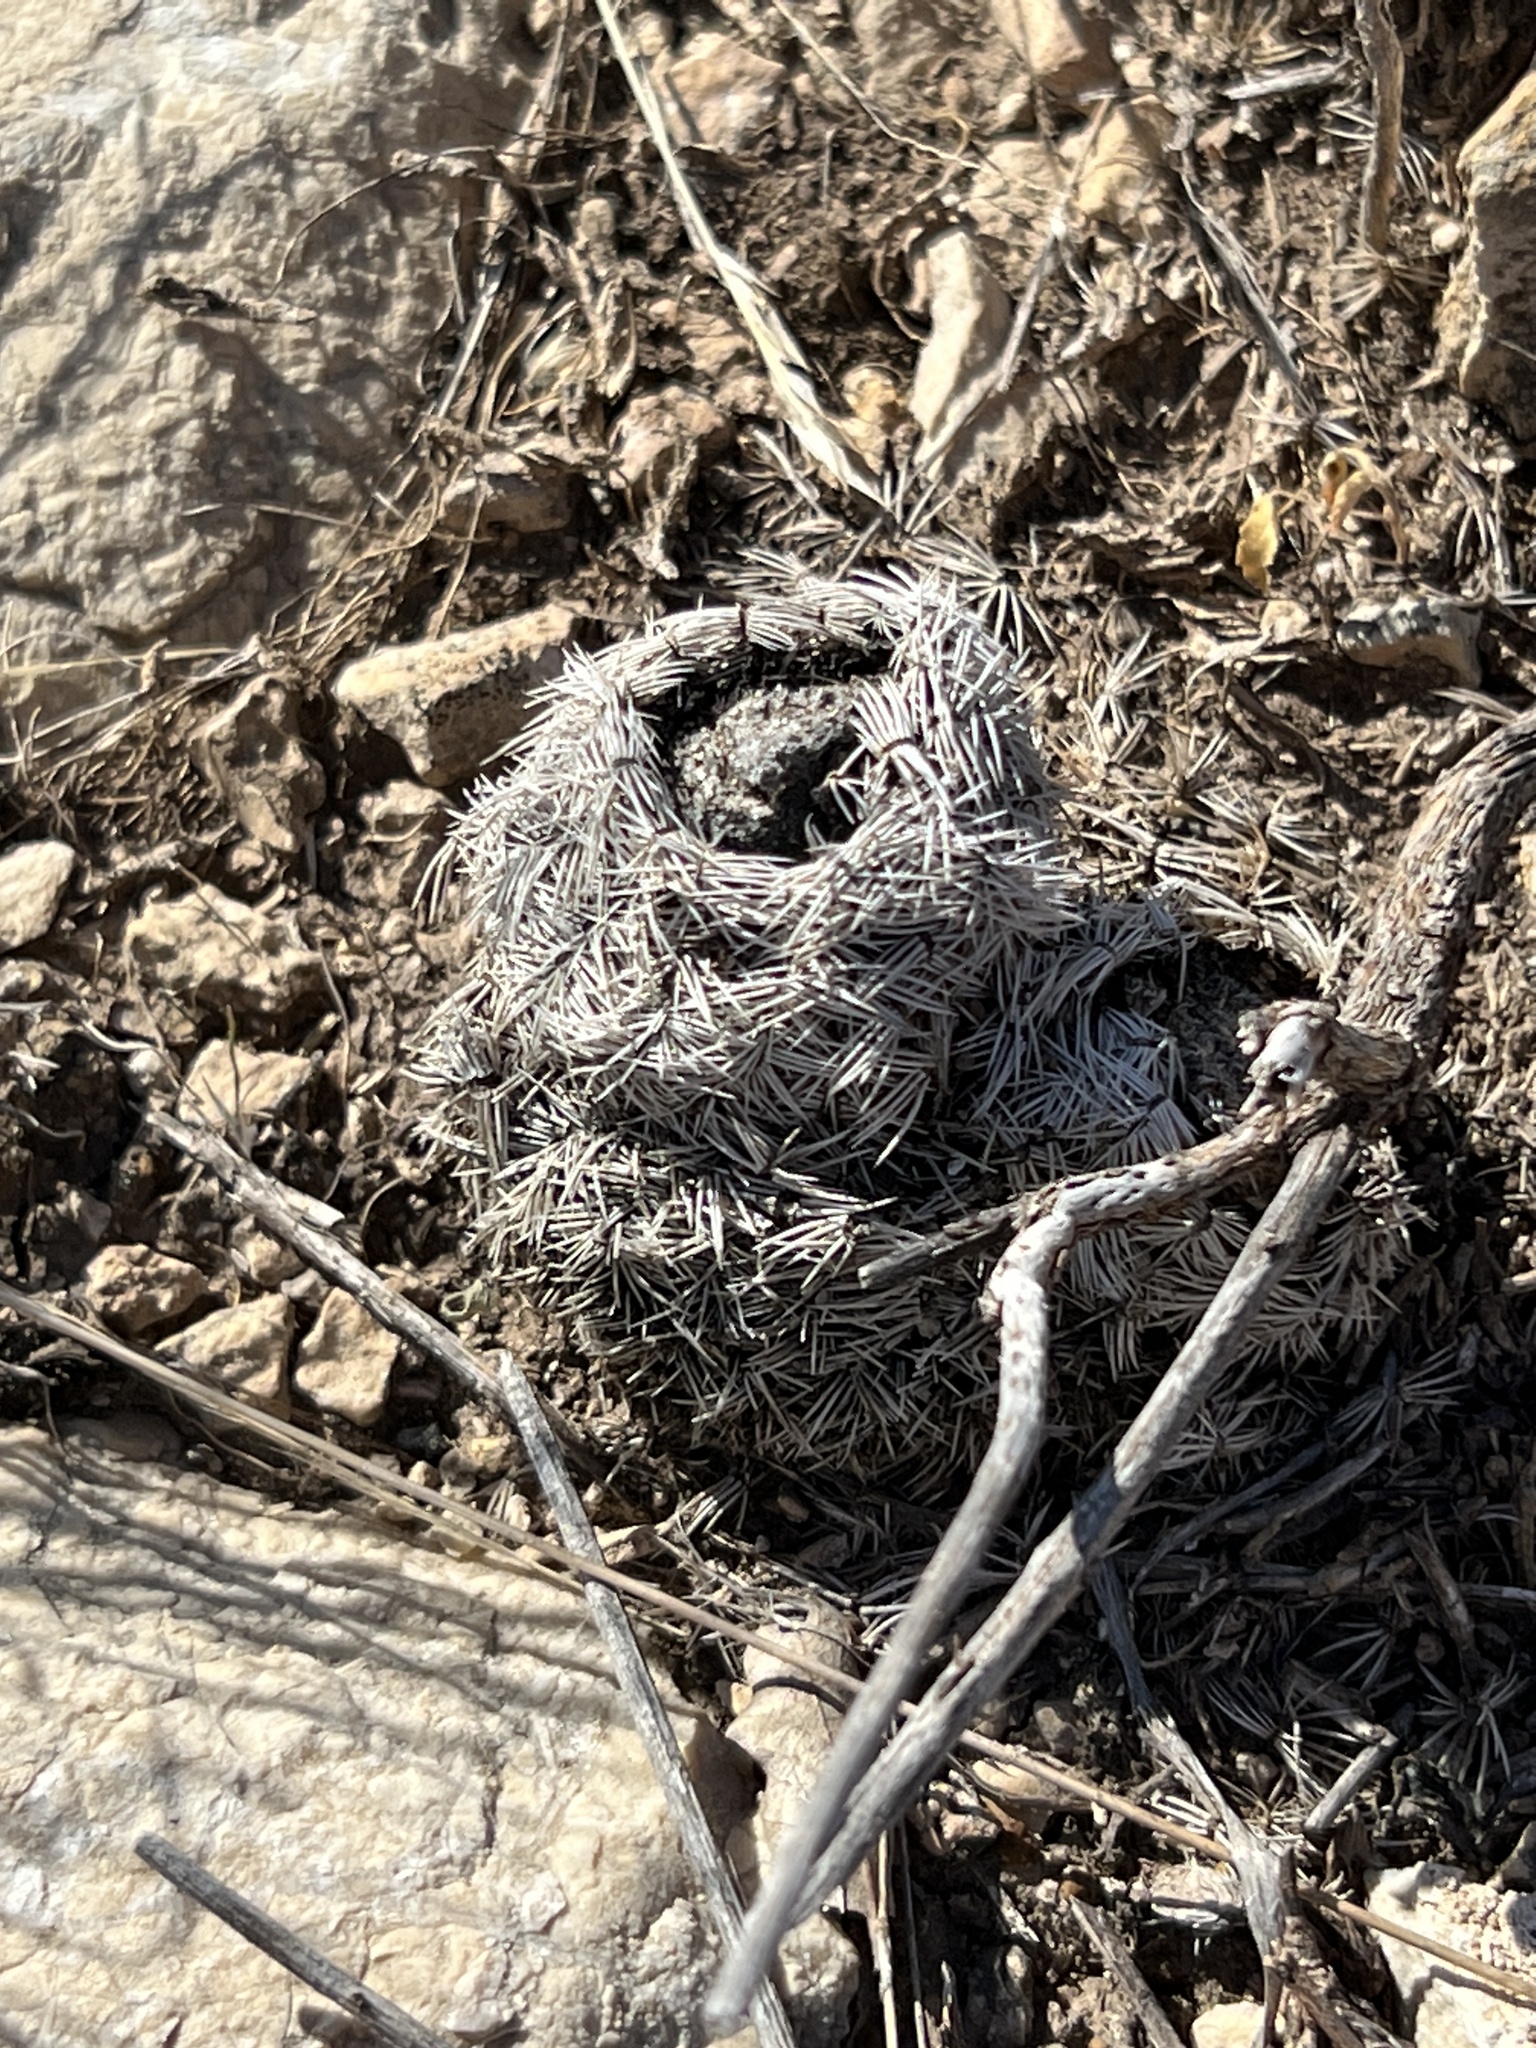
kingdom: Plantae
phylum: Tracheophyta
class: Magnoliopsida
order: Caryophyllales
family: Cactaceae
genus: Echinocereus
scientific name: Echinocereus reichenbachii
